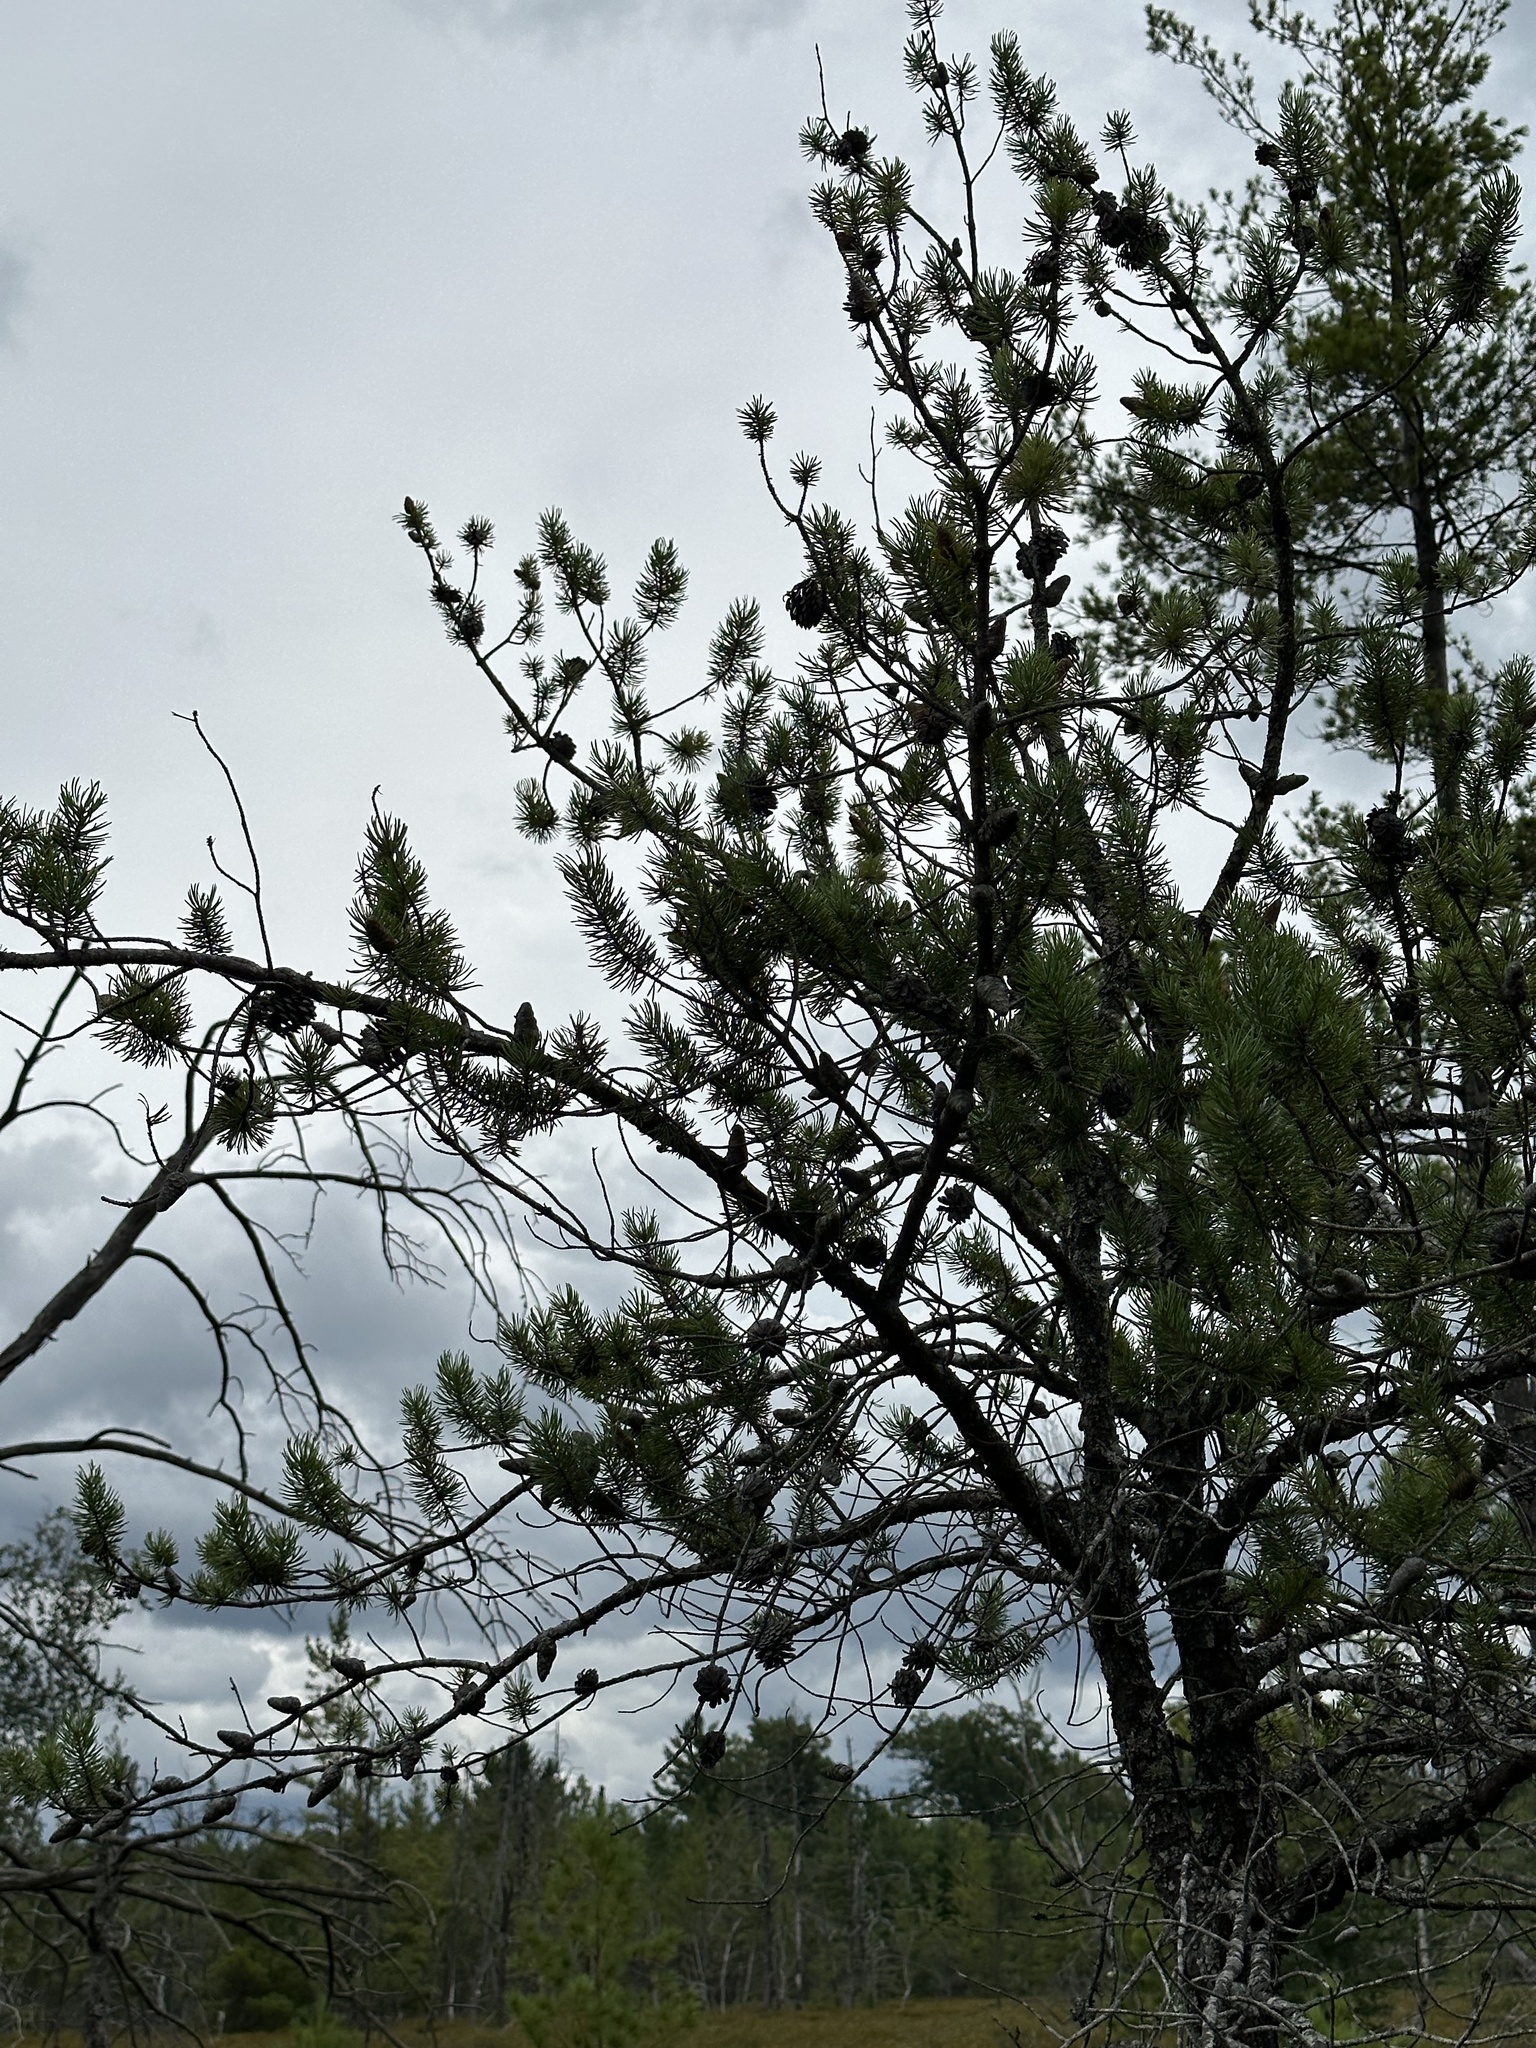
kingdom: Plantae
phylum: Tracheophyta
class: Pinopsida
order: Pinales
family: Pinaceae
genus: Pinus
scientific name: Pinus banksiana
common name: Jack pine
